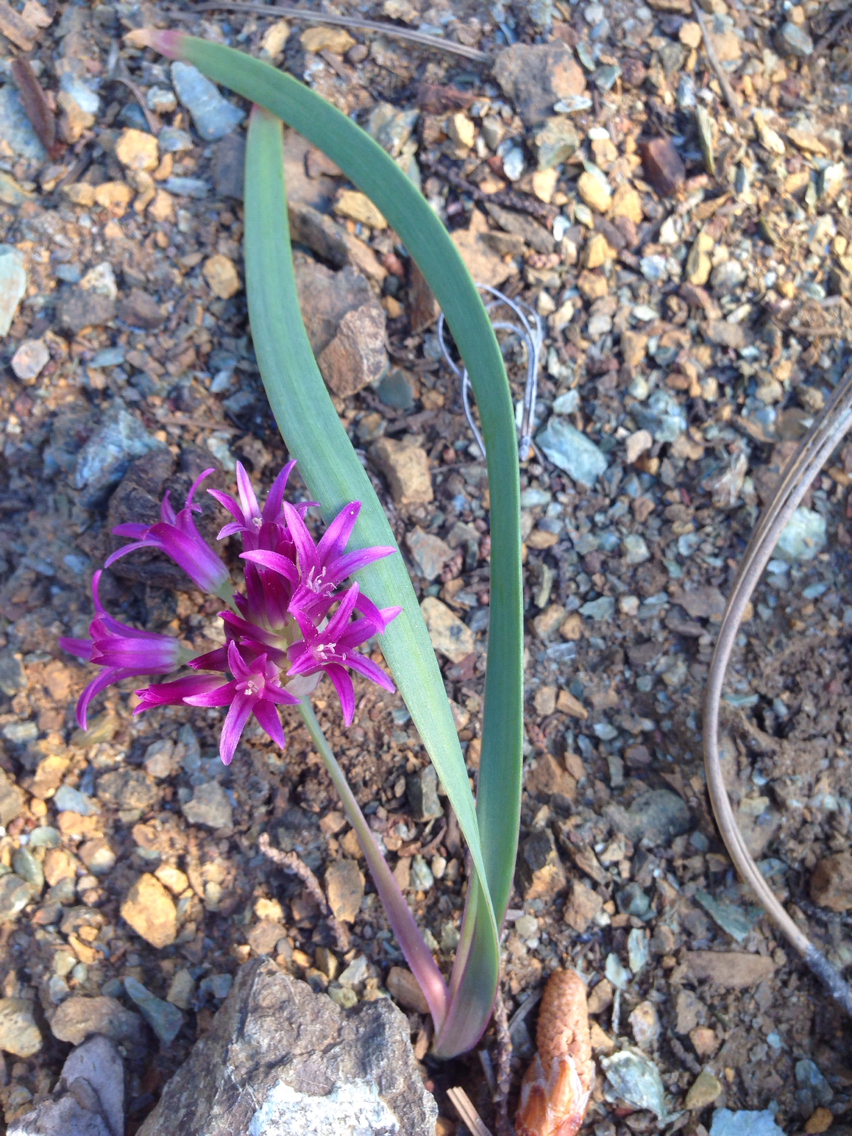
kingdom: Plantae
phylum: Tracheophyta
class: Liliopsida
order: Asparagales
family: Amaryllidaceae
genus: Allium
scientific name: Allium falcifolium
